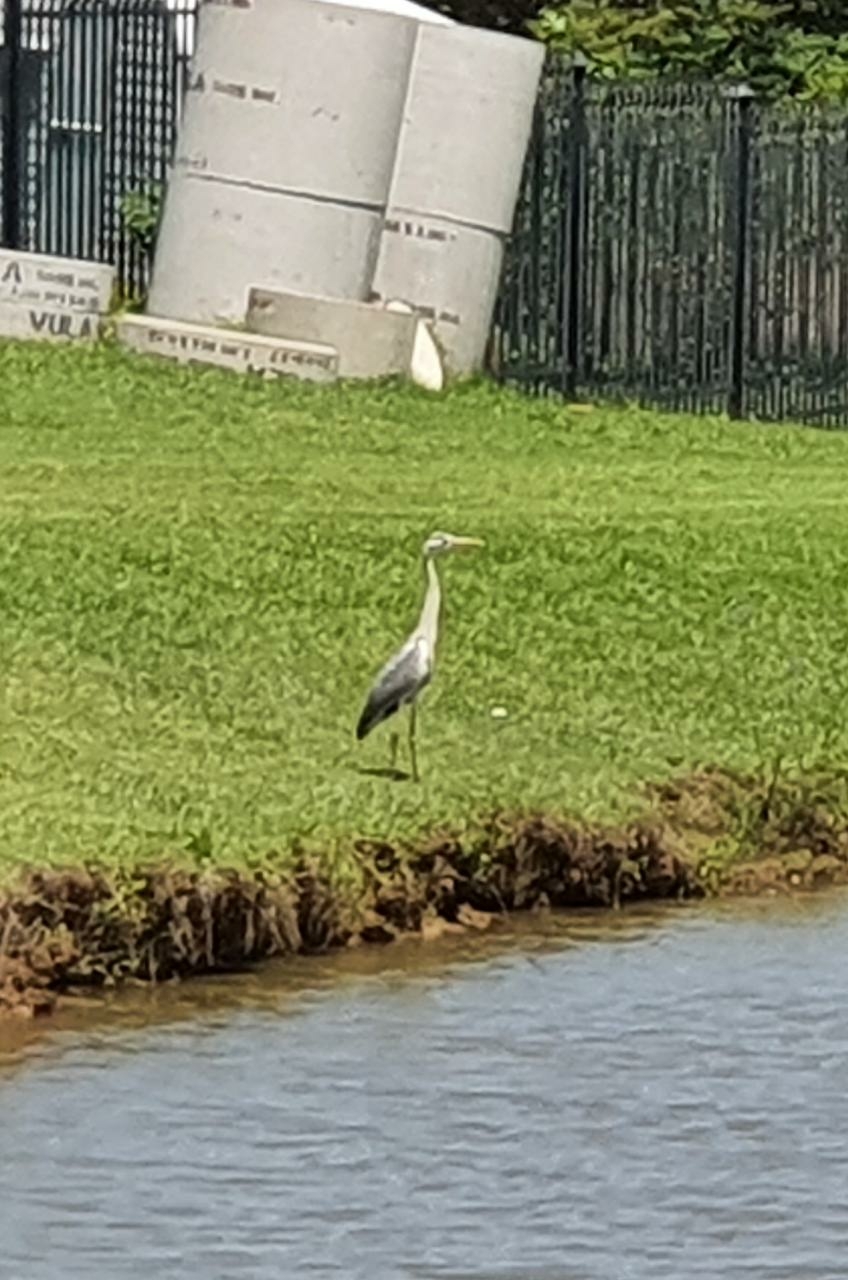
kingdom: Animalia
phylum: Chordata
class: Aves
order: Pelecaniformes
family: Ardeidae
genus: Ardea
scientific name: Ardea cinerea
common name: Grey heron
